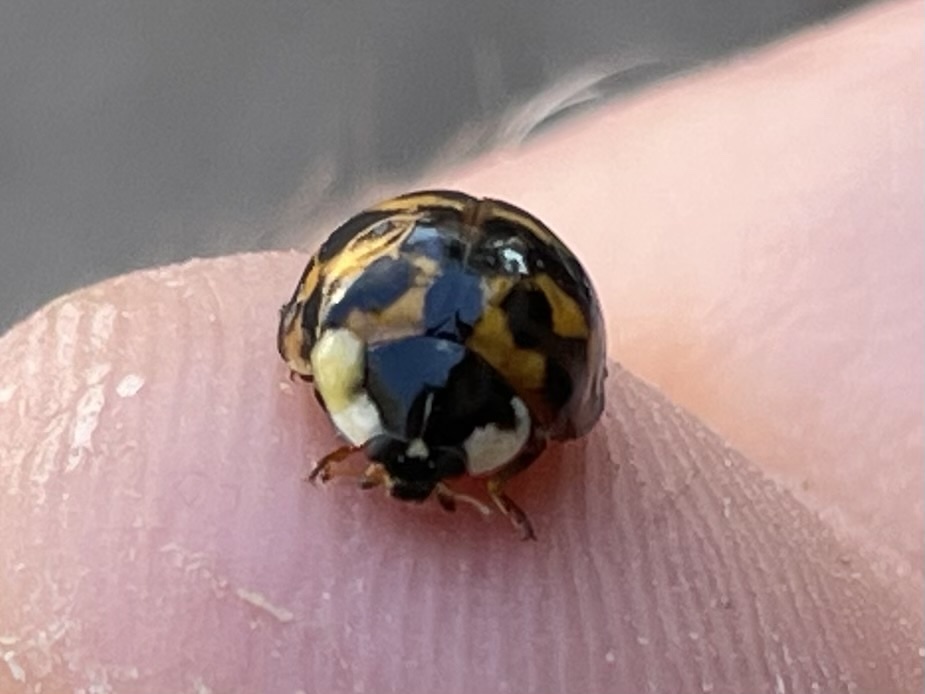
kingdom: Animalia
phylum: Arthropoda
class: Insecta
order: Coleoptera
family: Coccinellidae
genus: Harmonia
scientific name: Harmonia axyridis
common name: Harlequin ladybird
